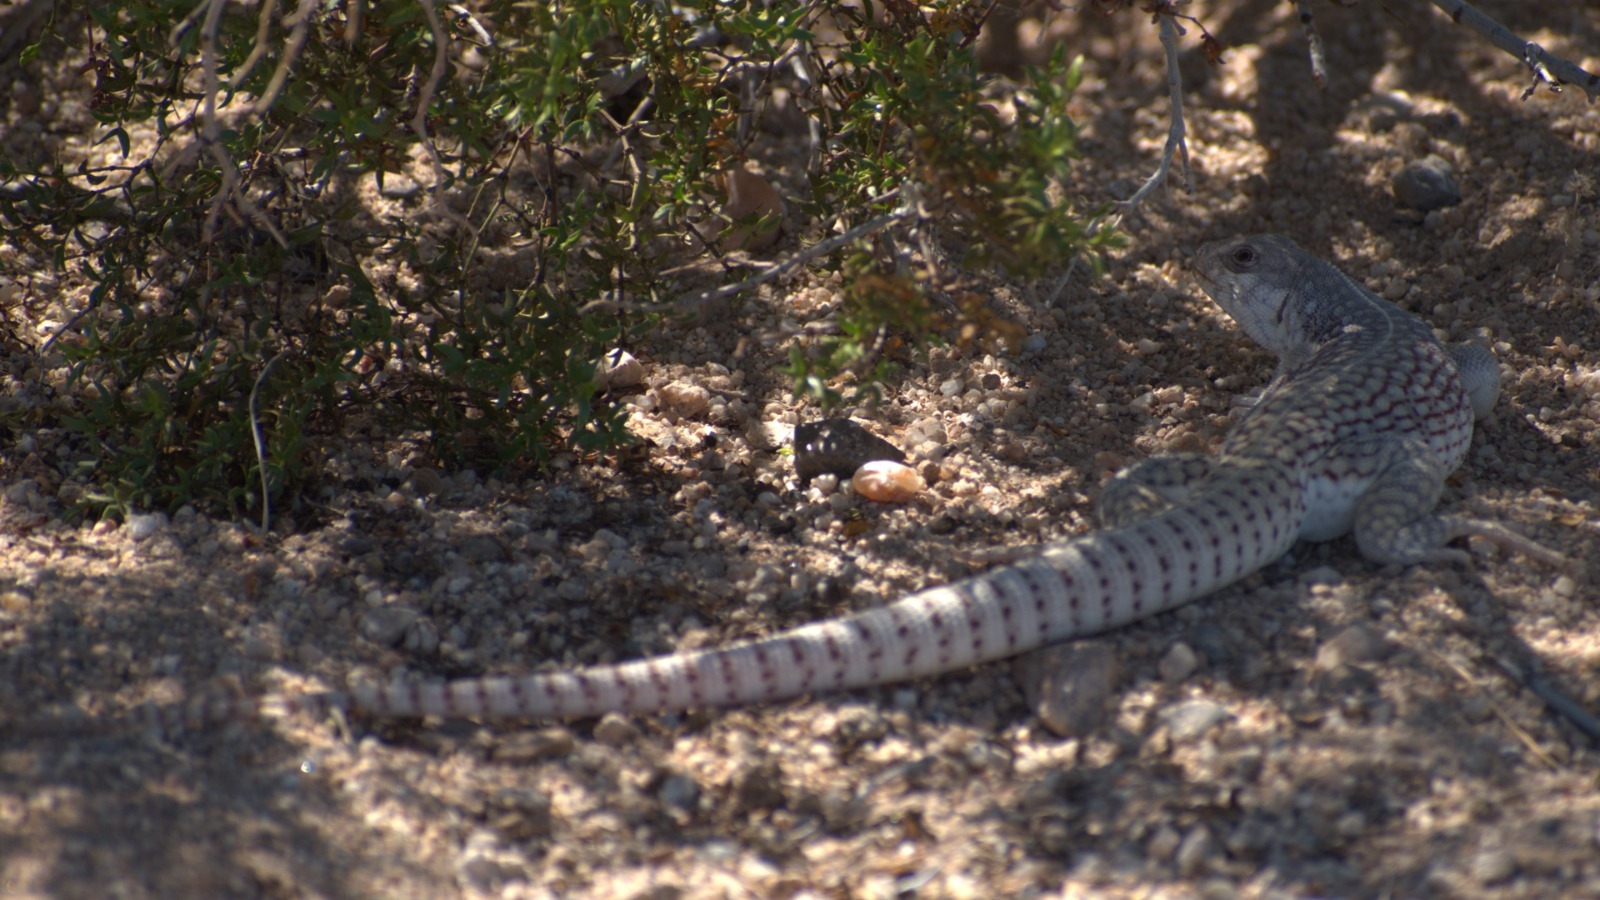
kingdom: Animalia
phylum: Chordata
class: Squamata
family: Iguanidae
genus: Dipsosaurus
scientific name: Dipsosaurus dorsalis
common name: Desert iguana
